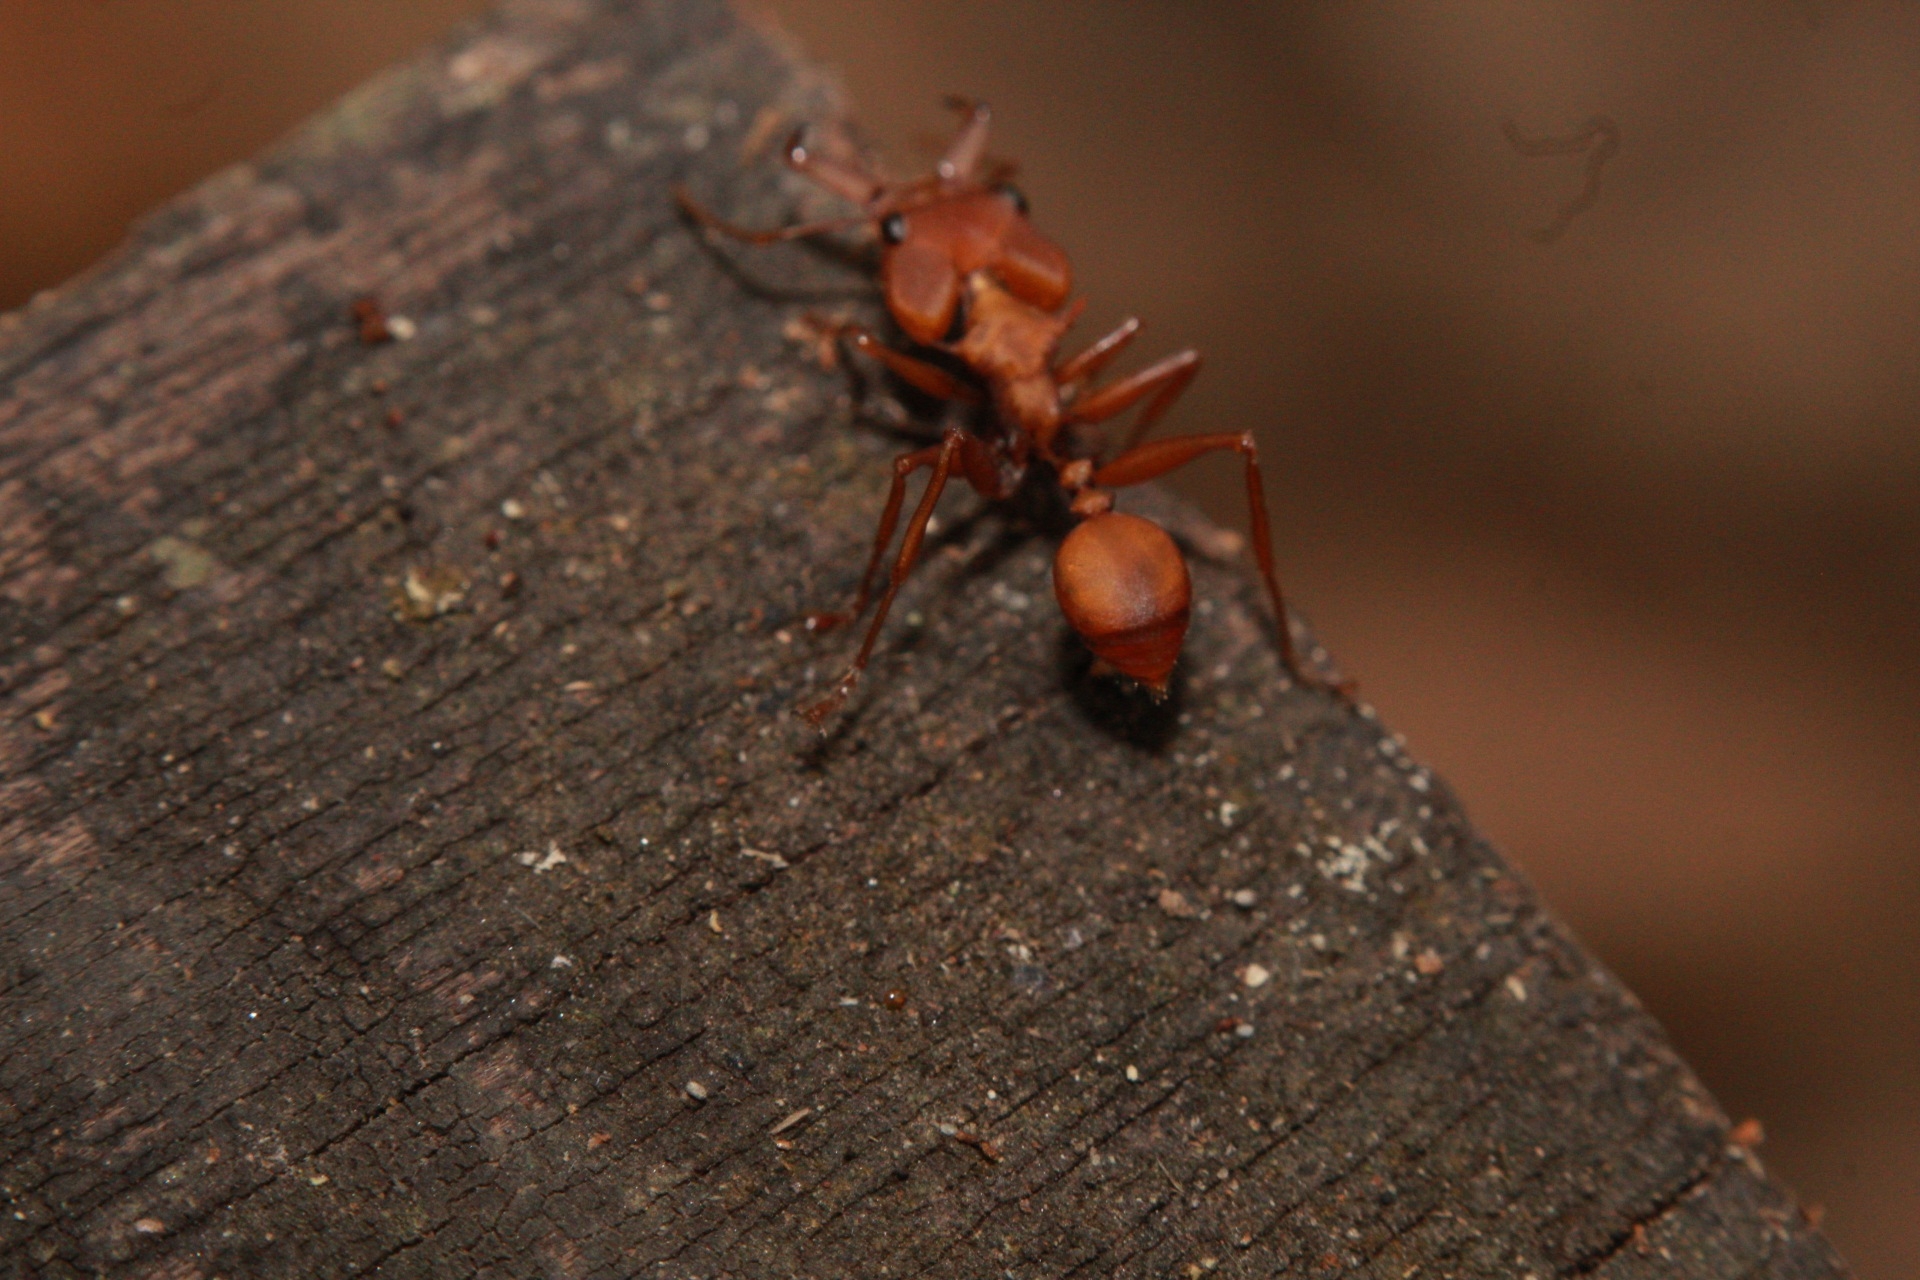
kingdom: Animalia
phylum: Arthropoda
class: Insecta
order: Hymenoptera
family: Formicidae
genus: Daceton
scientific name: Daceton armigerum
